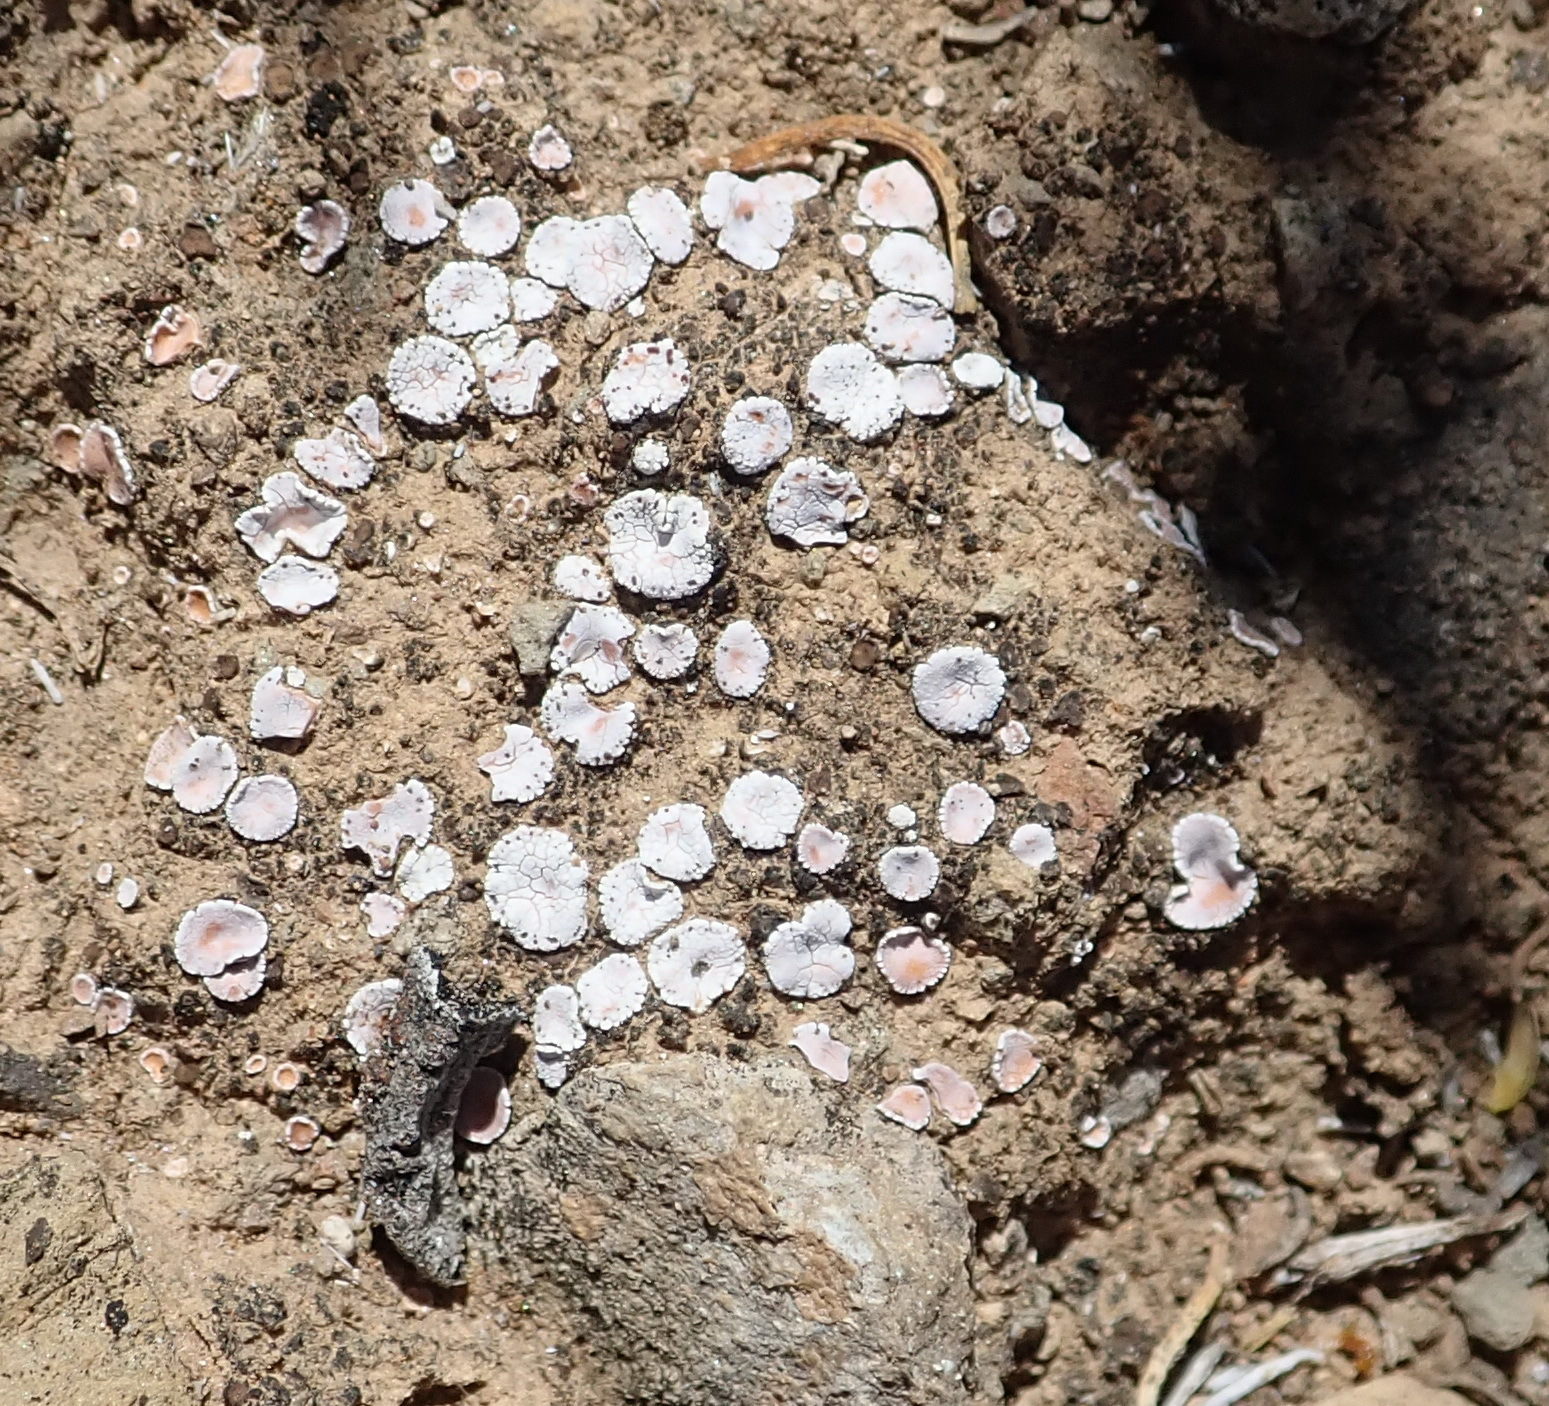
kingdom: Fungi
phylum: Ascomycota
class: Lecanoromycetes
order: Lecanorales
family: Psoraceae
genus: Psora
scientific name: Psora crenata
